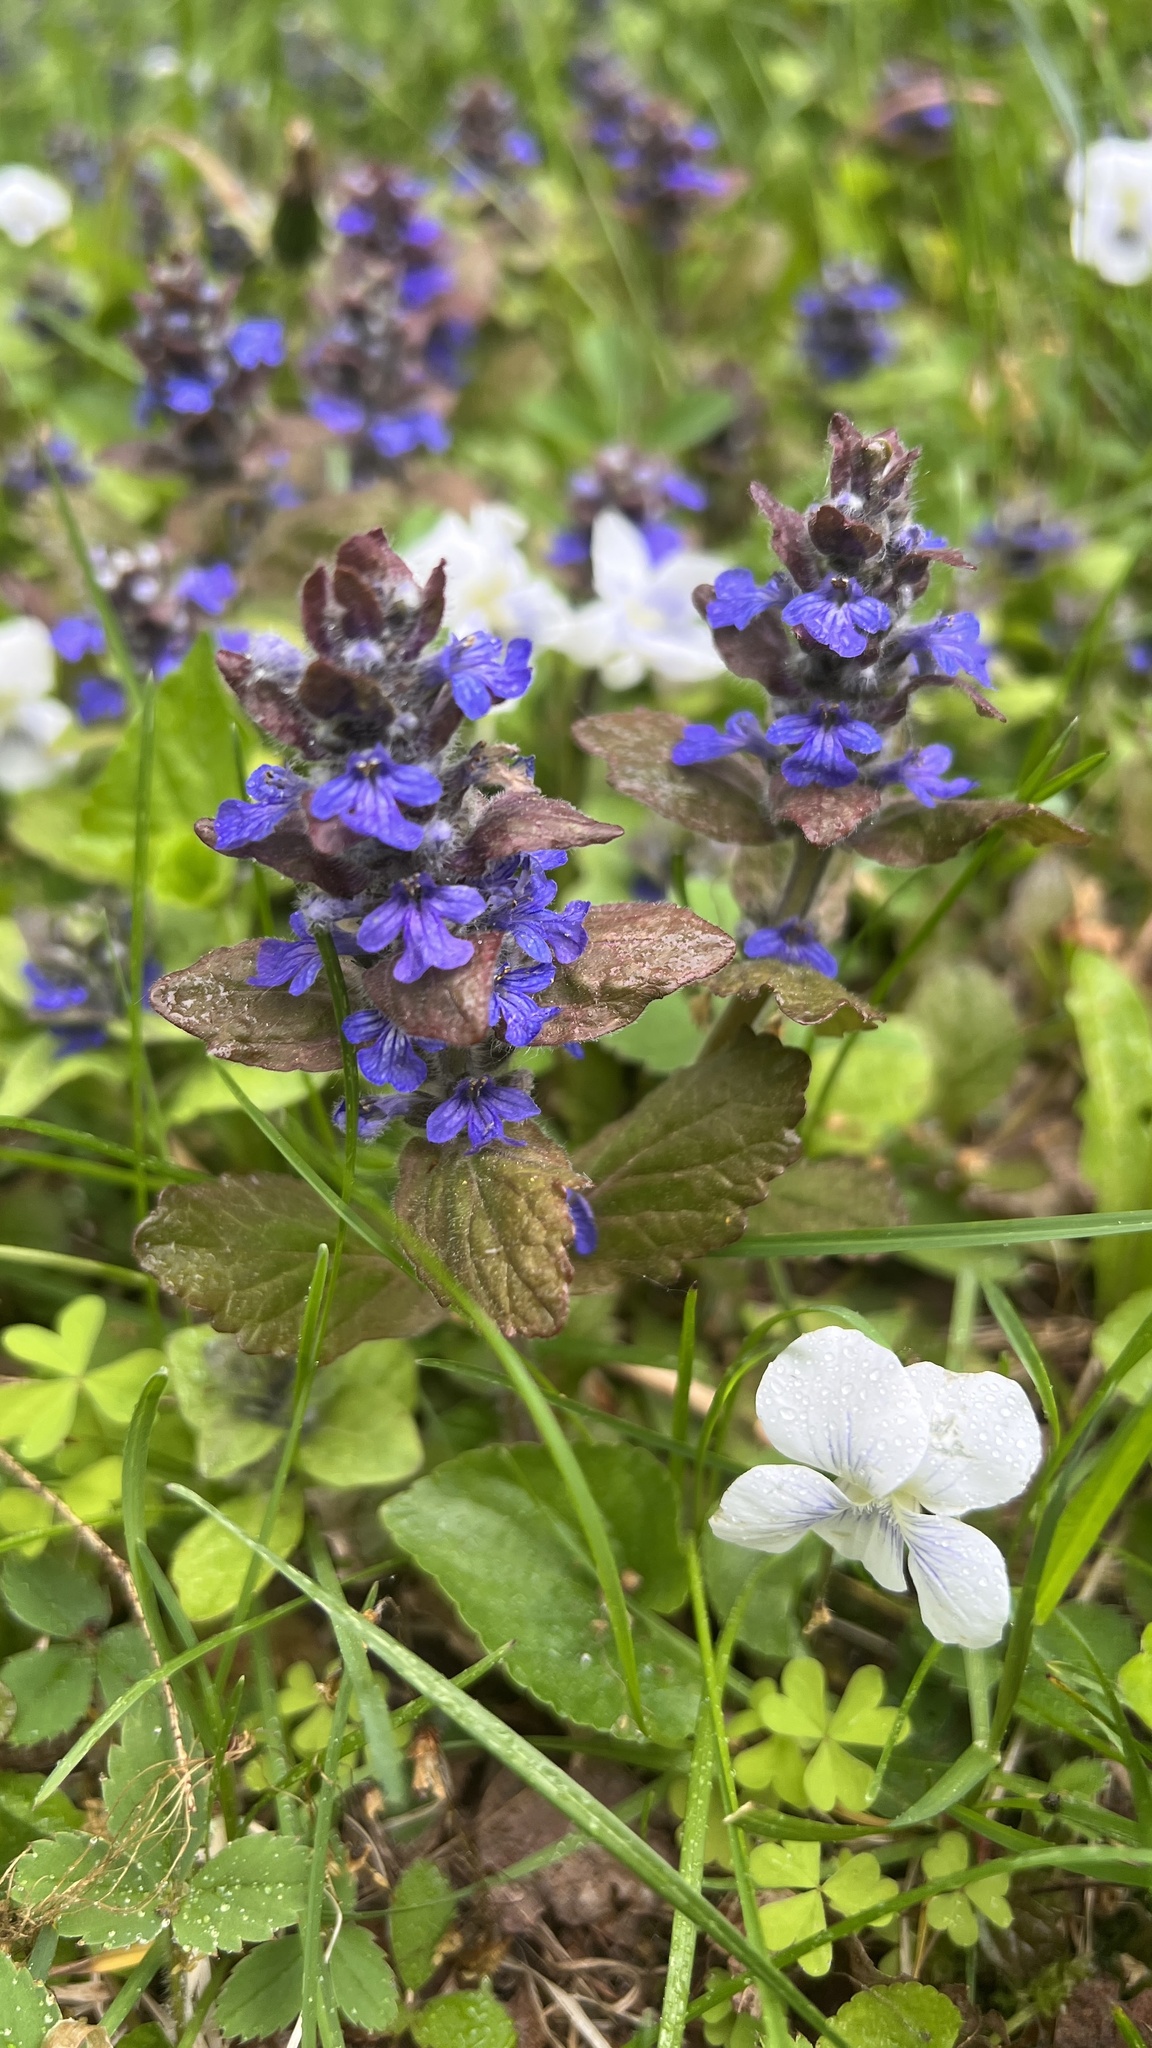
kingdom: Plantae
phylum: Tracheophyta
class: Magnoliopsida
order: Lamiales
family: Lamiaceae
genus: Ajuga
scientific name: Ajuga reptans
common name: Bugle
